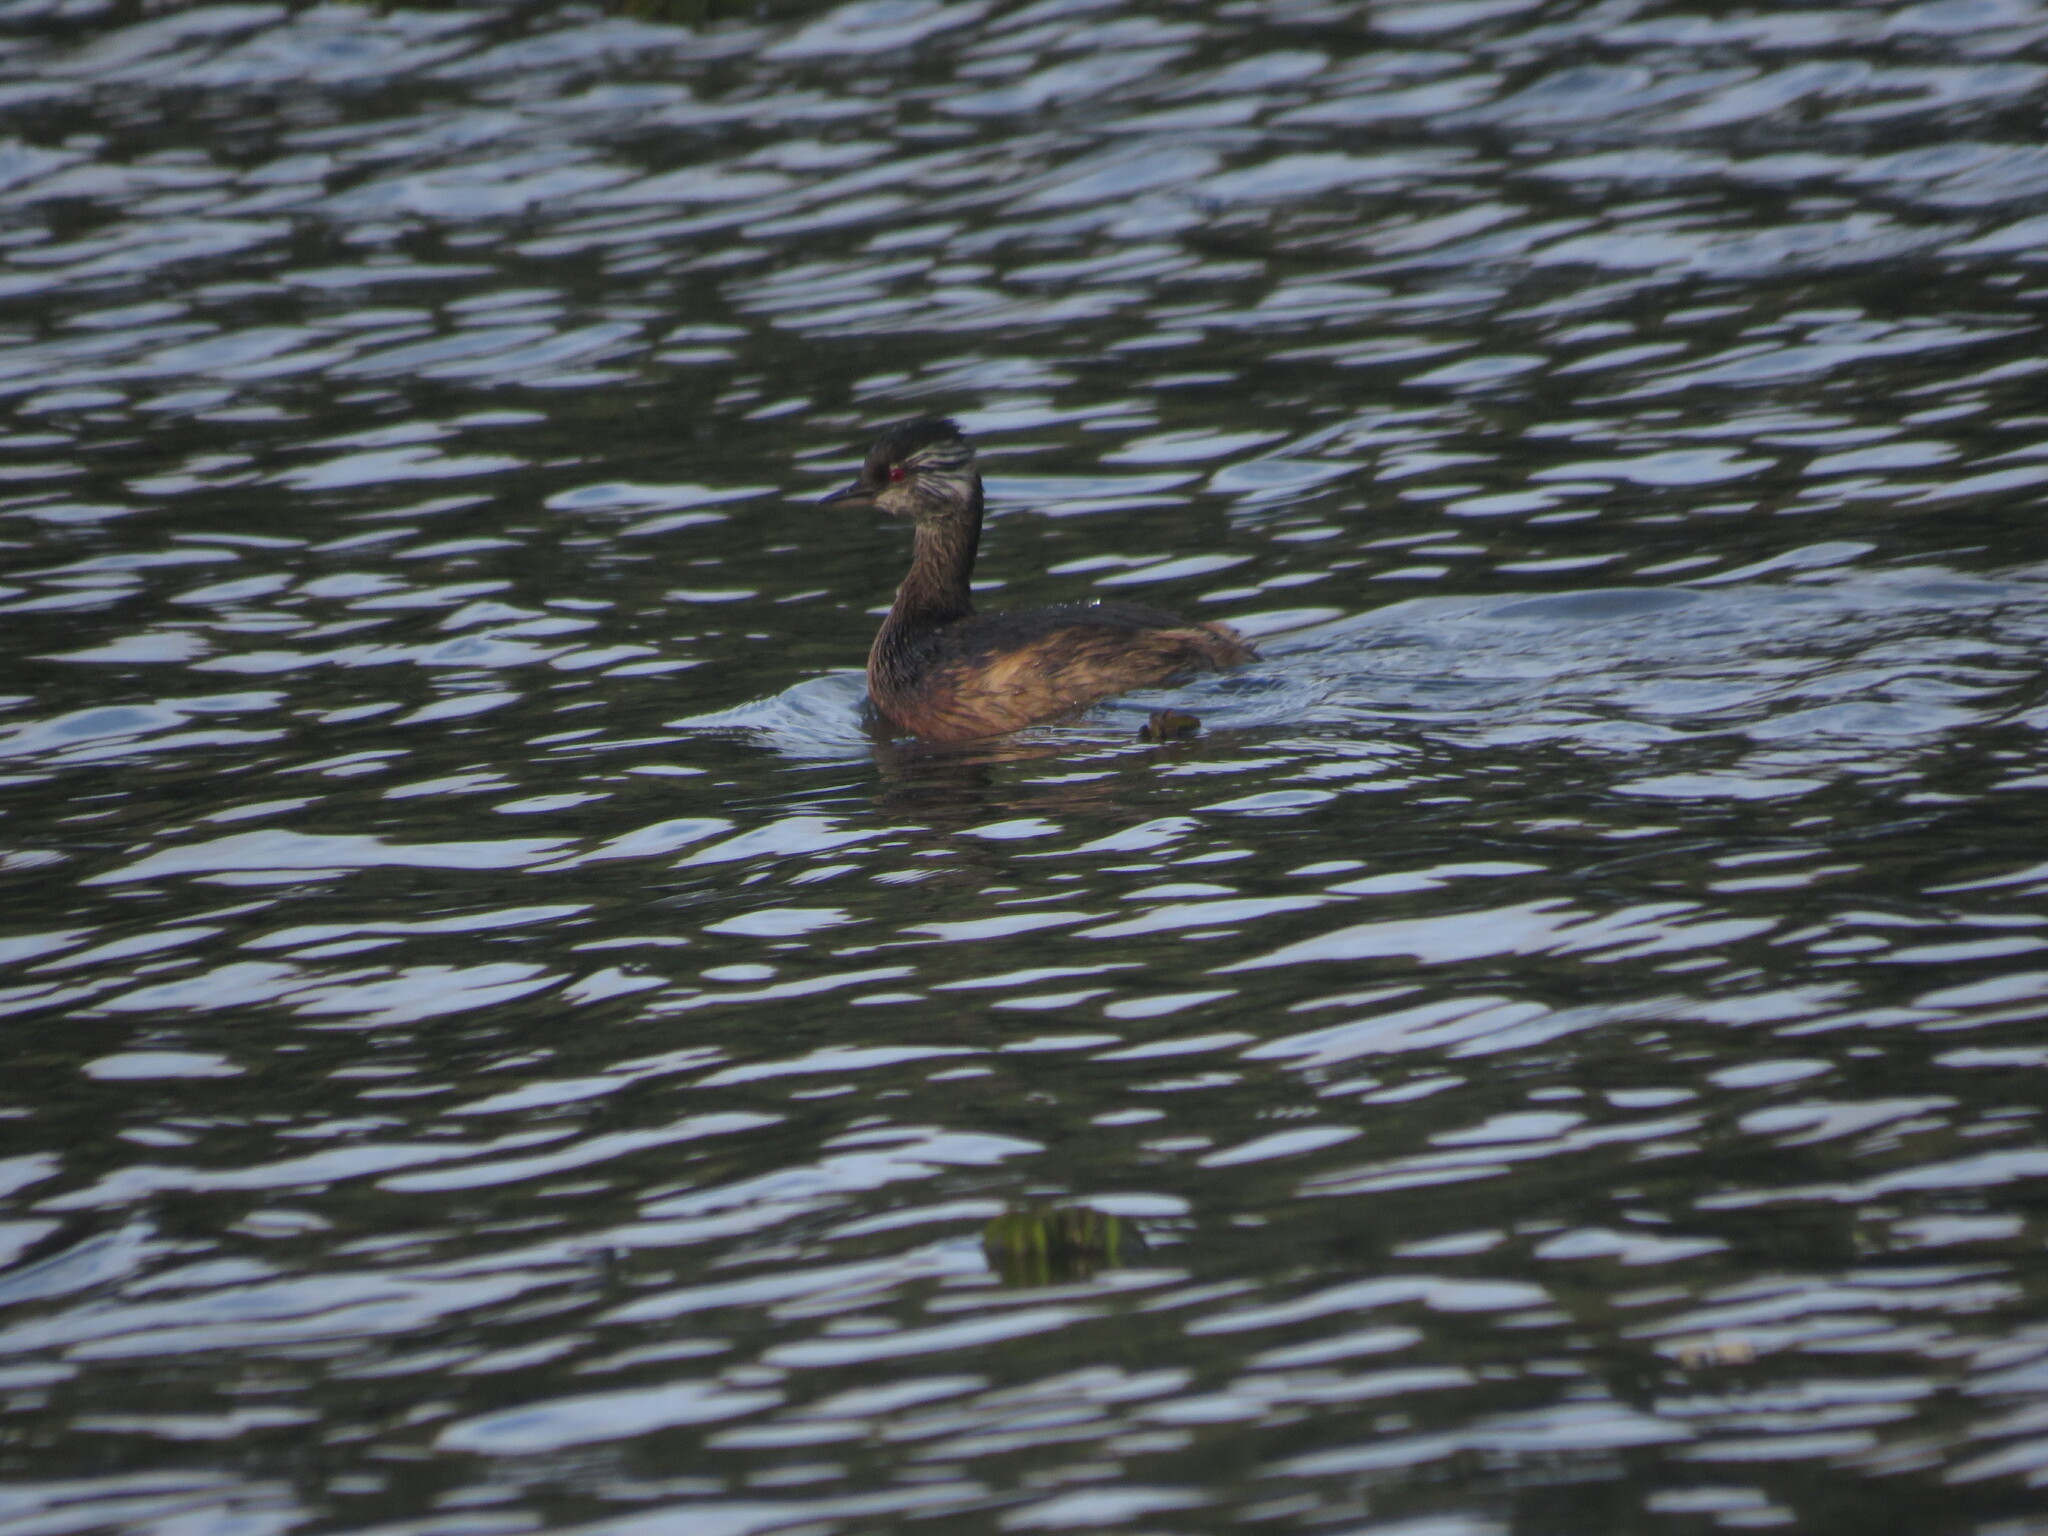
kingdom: Animalia
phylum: Chordata
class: Aves
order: Podicipediformes
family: Podicipedidae
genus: Rollandia
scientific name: Rollandia rolland
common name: White-tufted grebe
